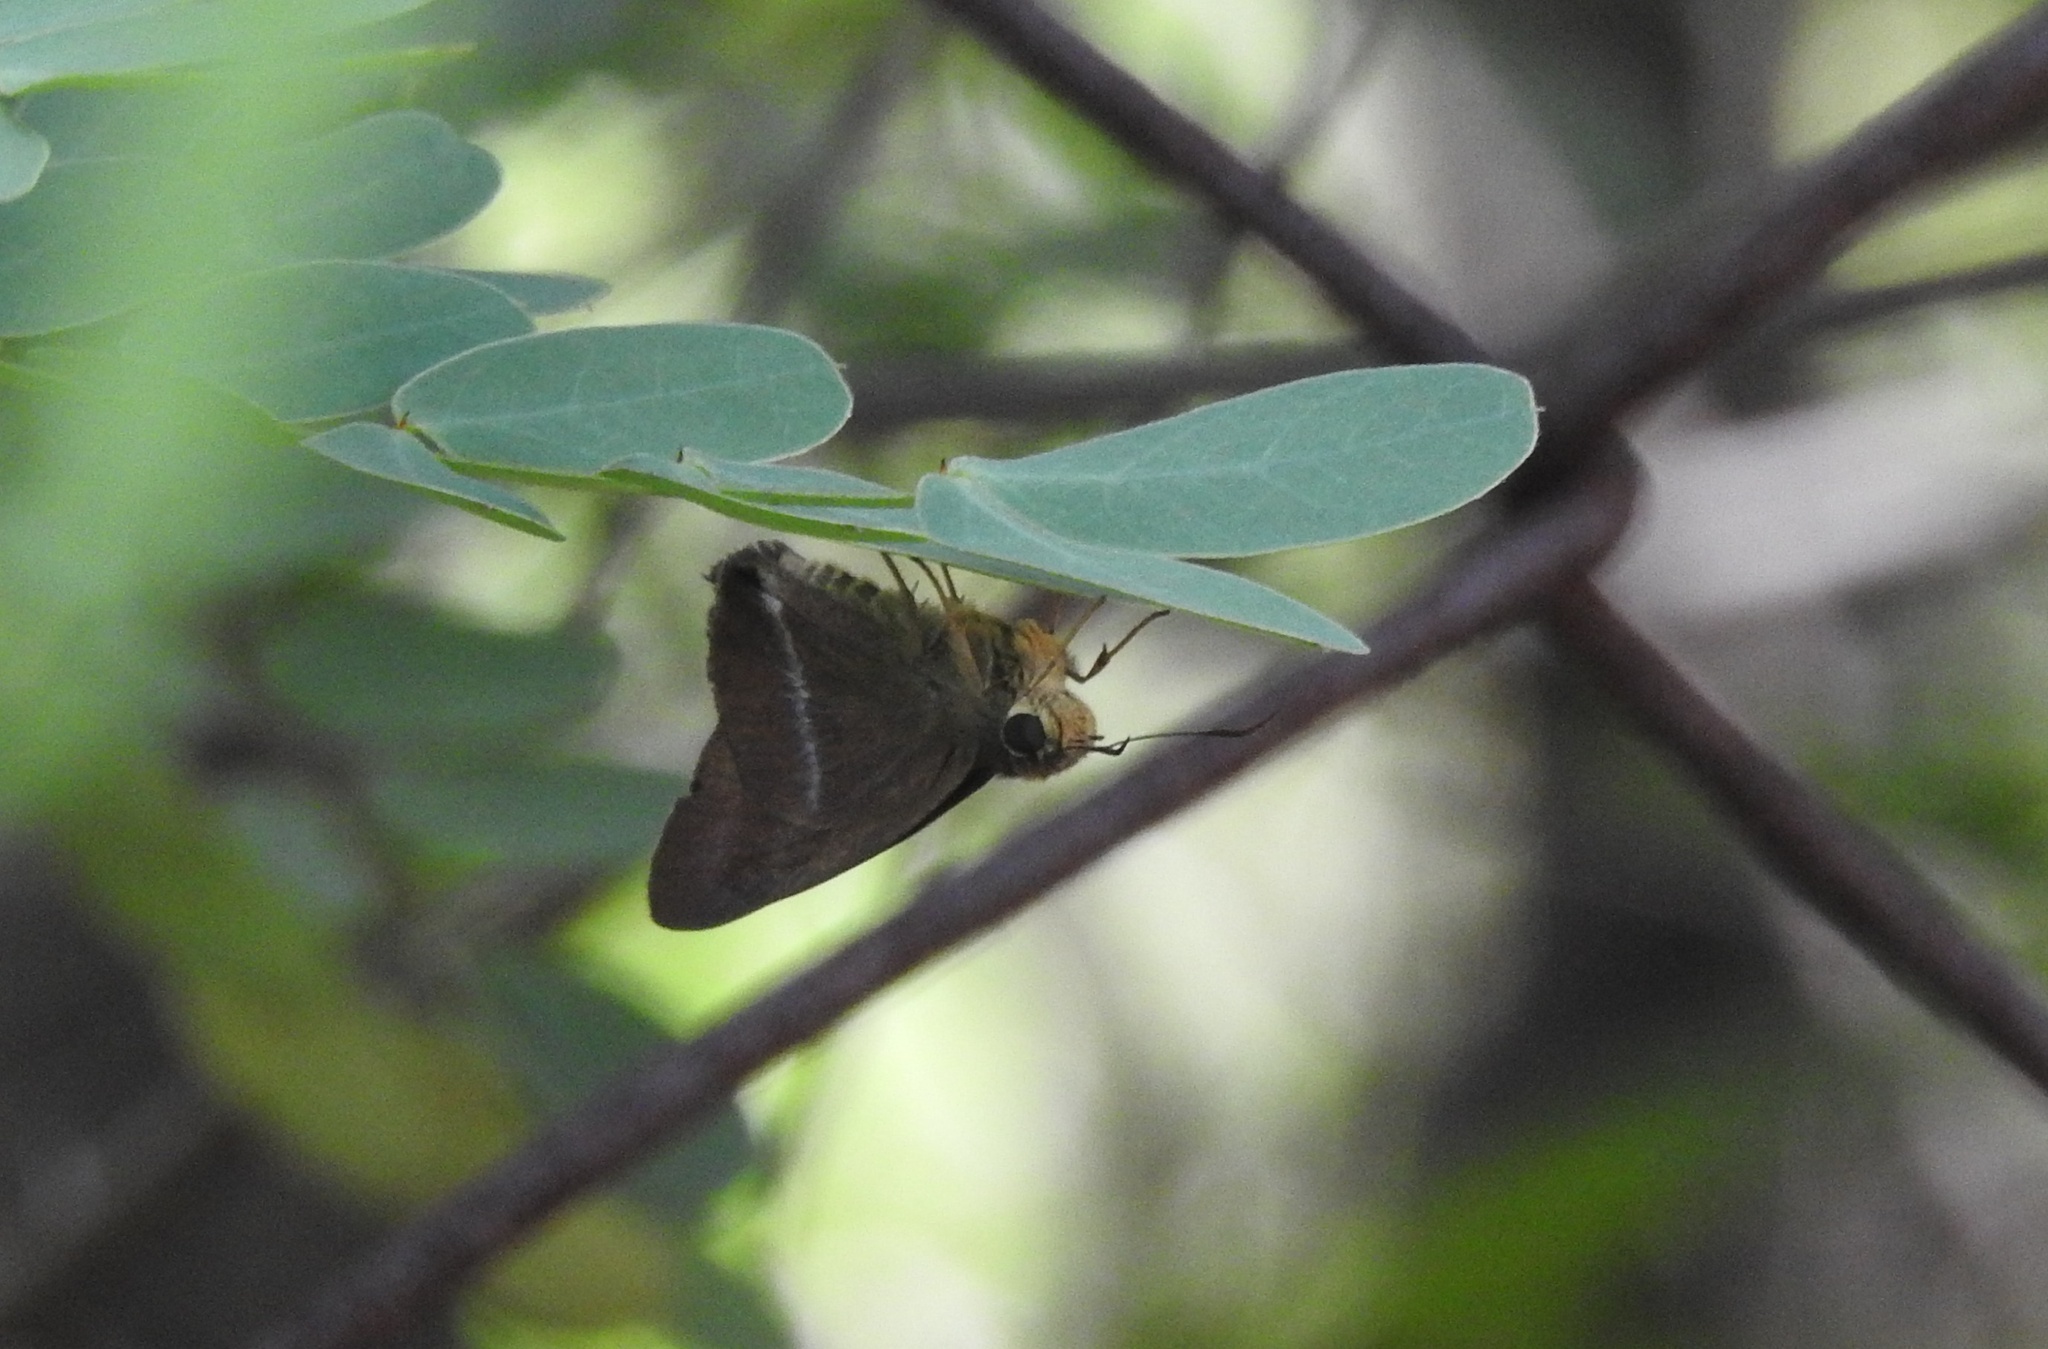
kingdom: Animalia
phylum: Arthropoda
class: Insecta
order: Lepidoptera
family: Hesperiidae
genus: Hasora
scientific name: Hasora chromus
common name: Common banded awl
